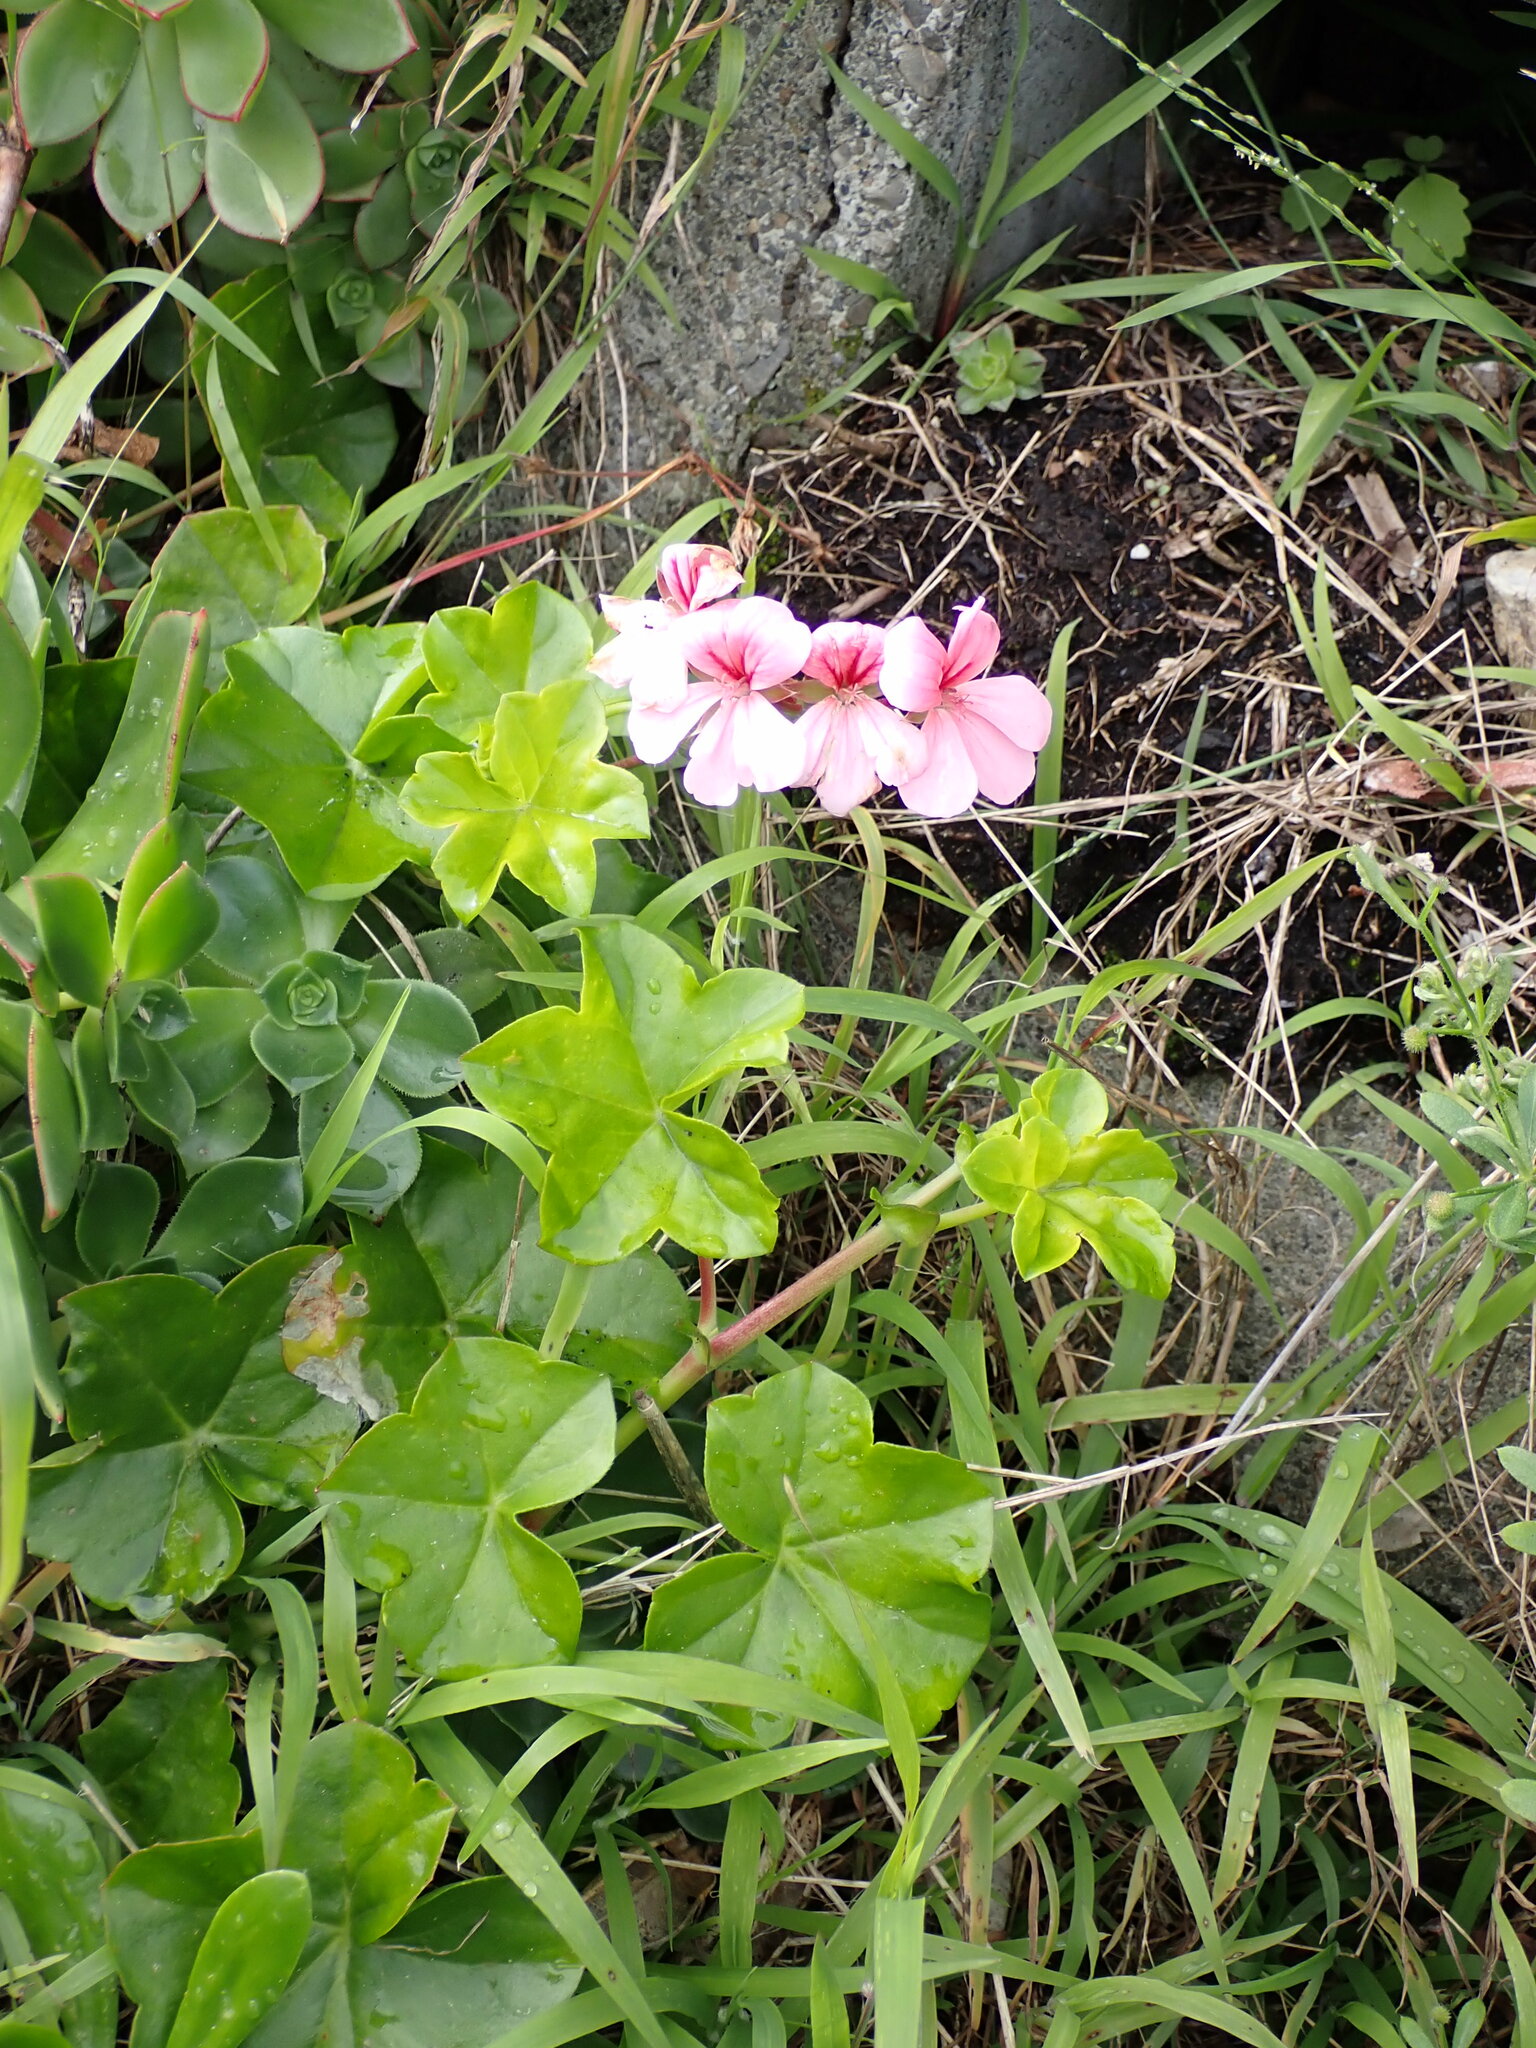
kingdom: Plantae
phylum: Tracheophyta
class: Magnoliopsida
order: Geraniales
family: Geraniaceae
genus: Pelargonium
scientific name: Pelargonium hybridum
